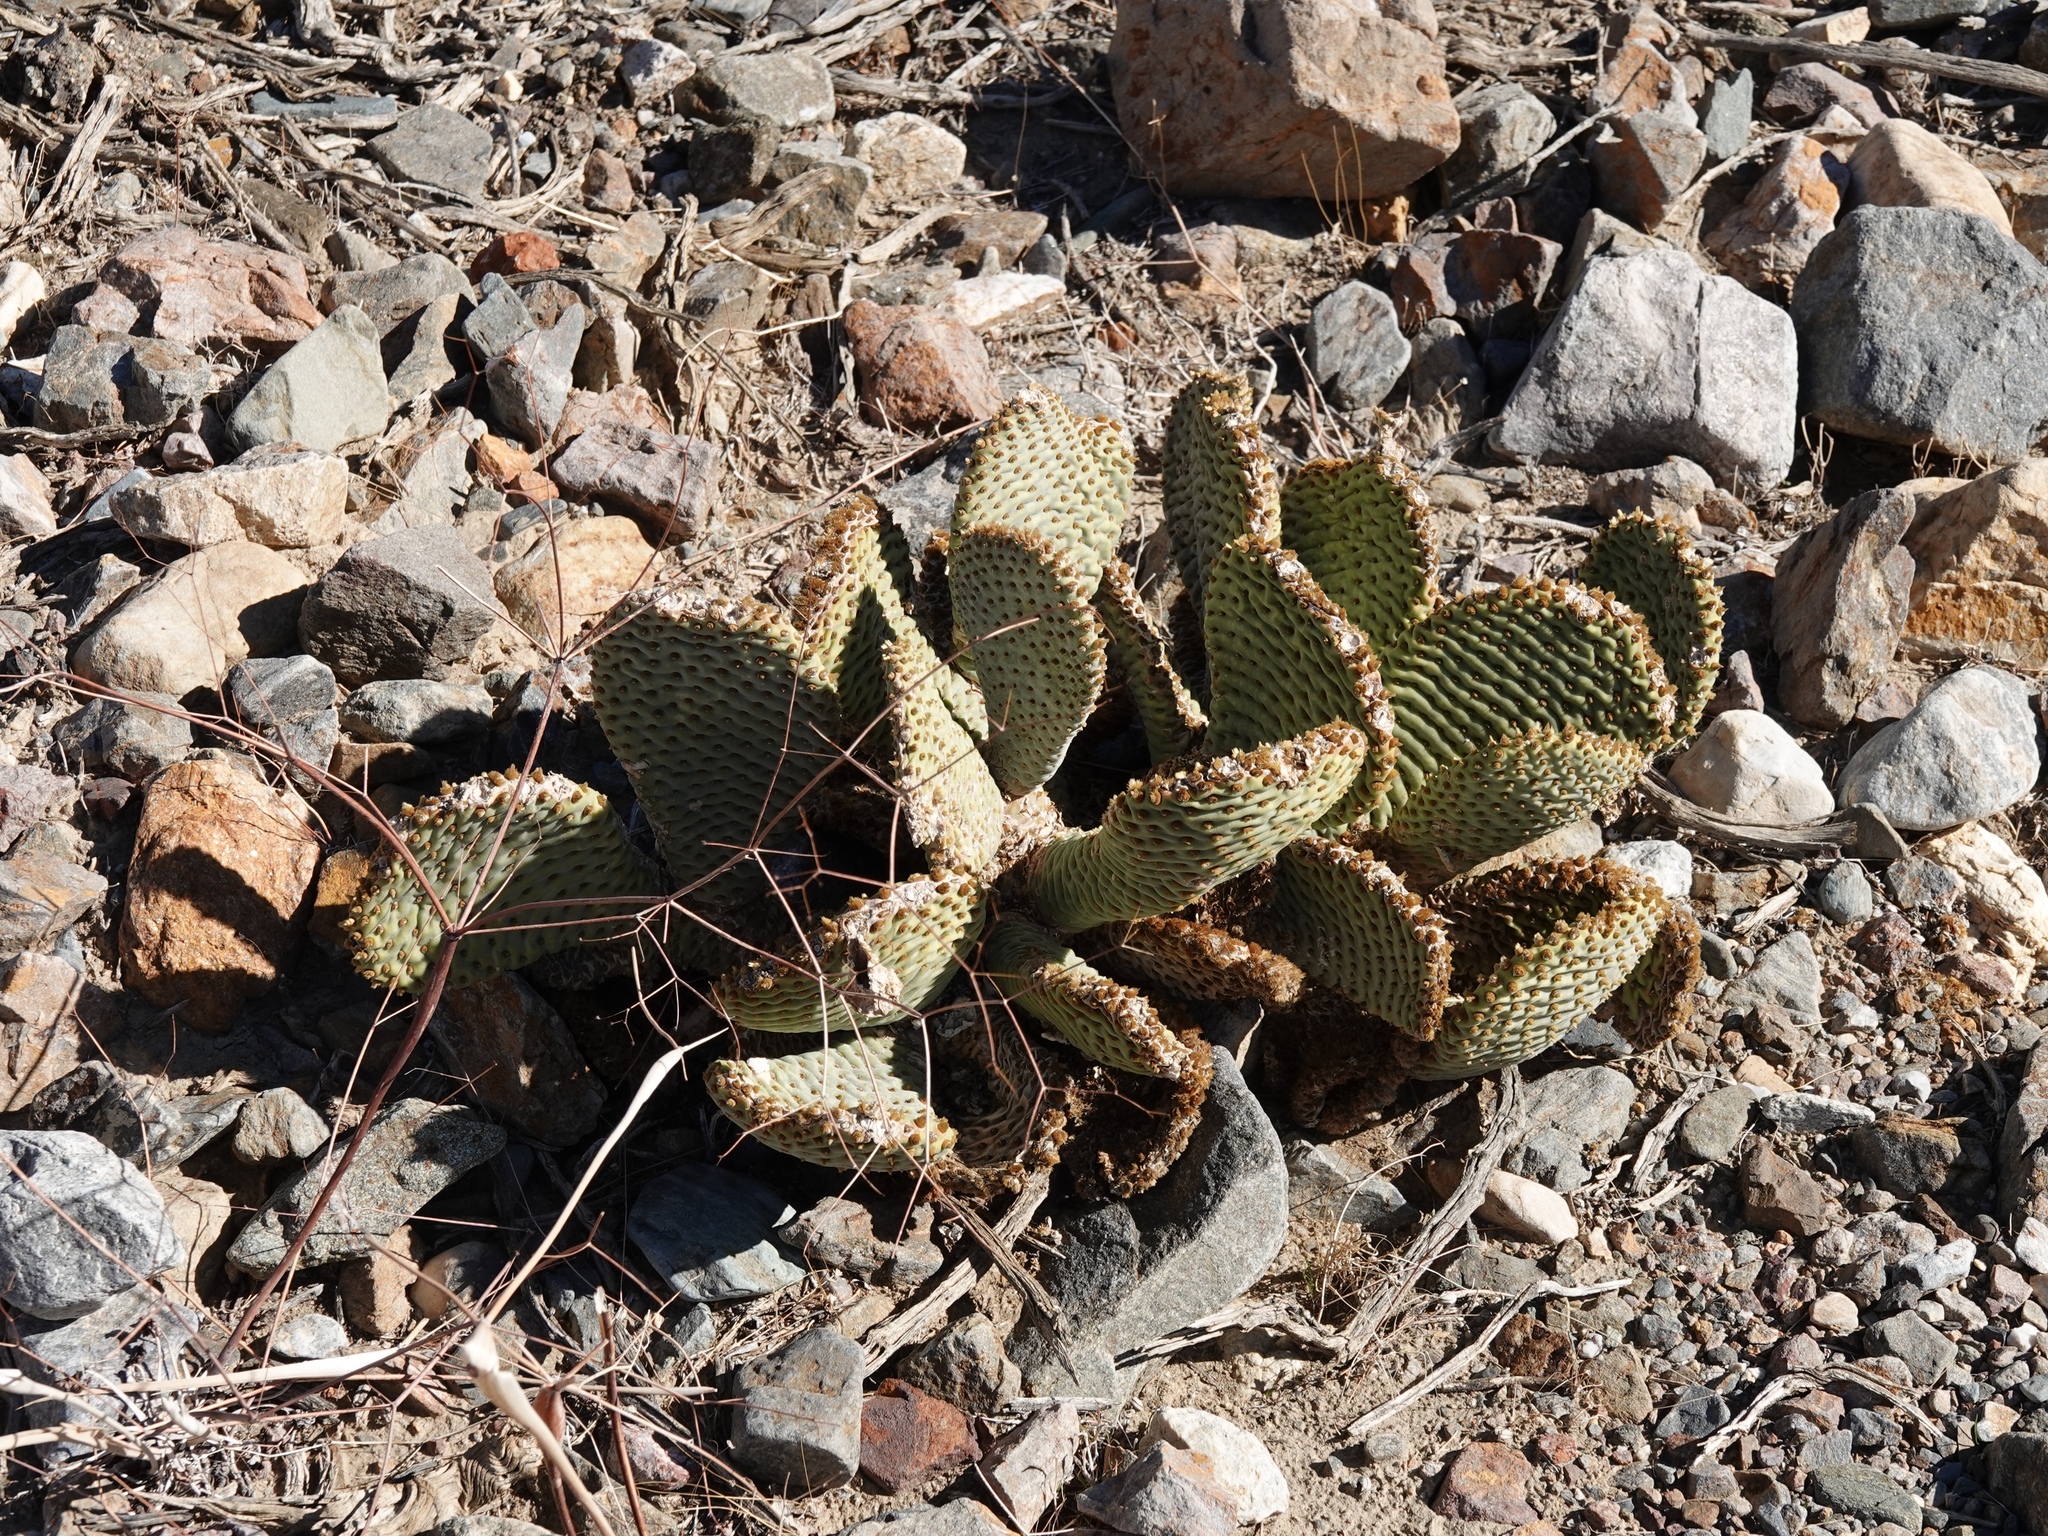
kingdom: Plantae
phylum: Tracheophyta
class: Magnoliopsida
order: Caryophyllales
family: Cactaceae
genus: Opuntia
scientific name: Opuntia basilaris
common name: Beavertail prickly-pear
